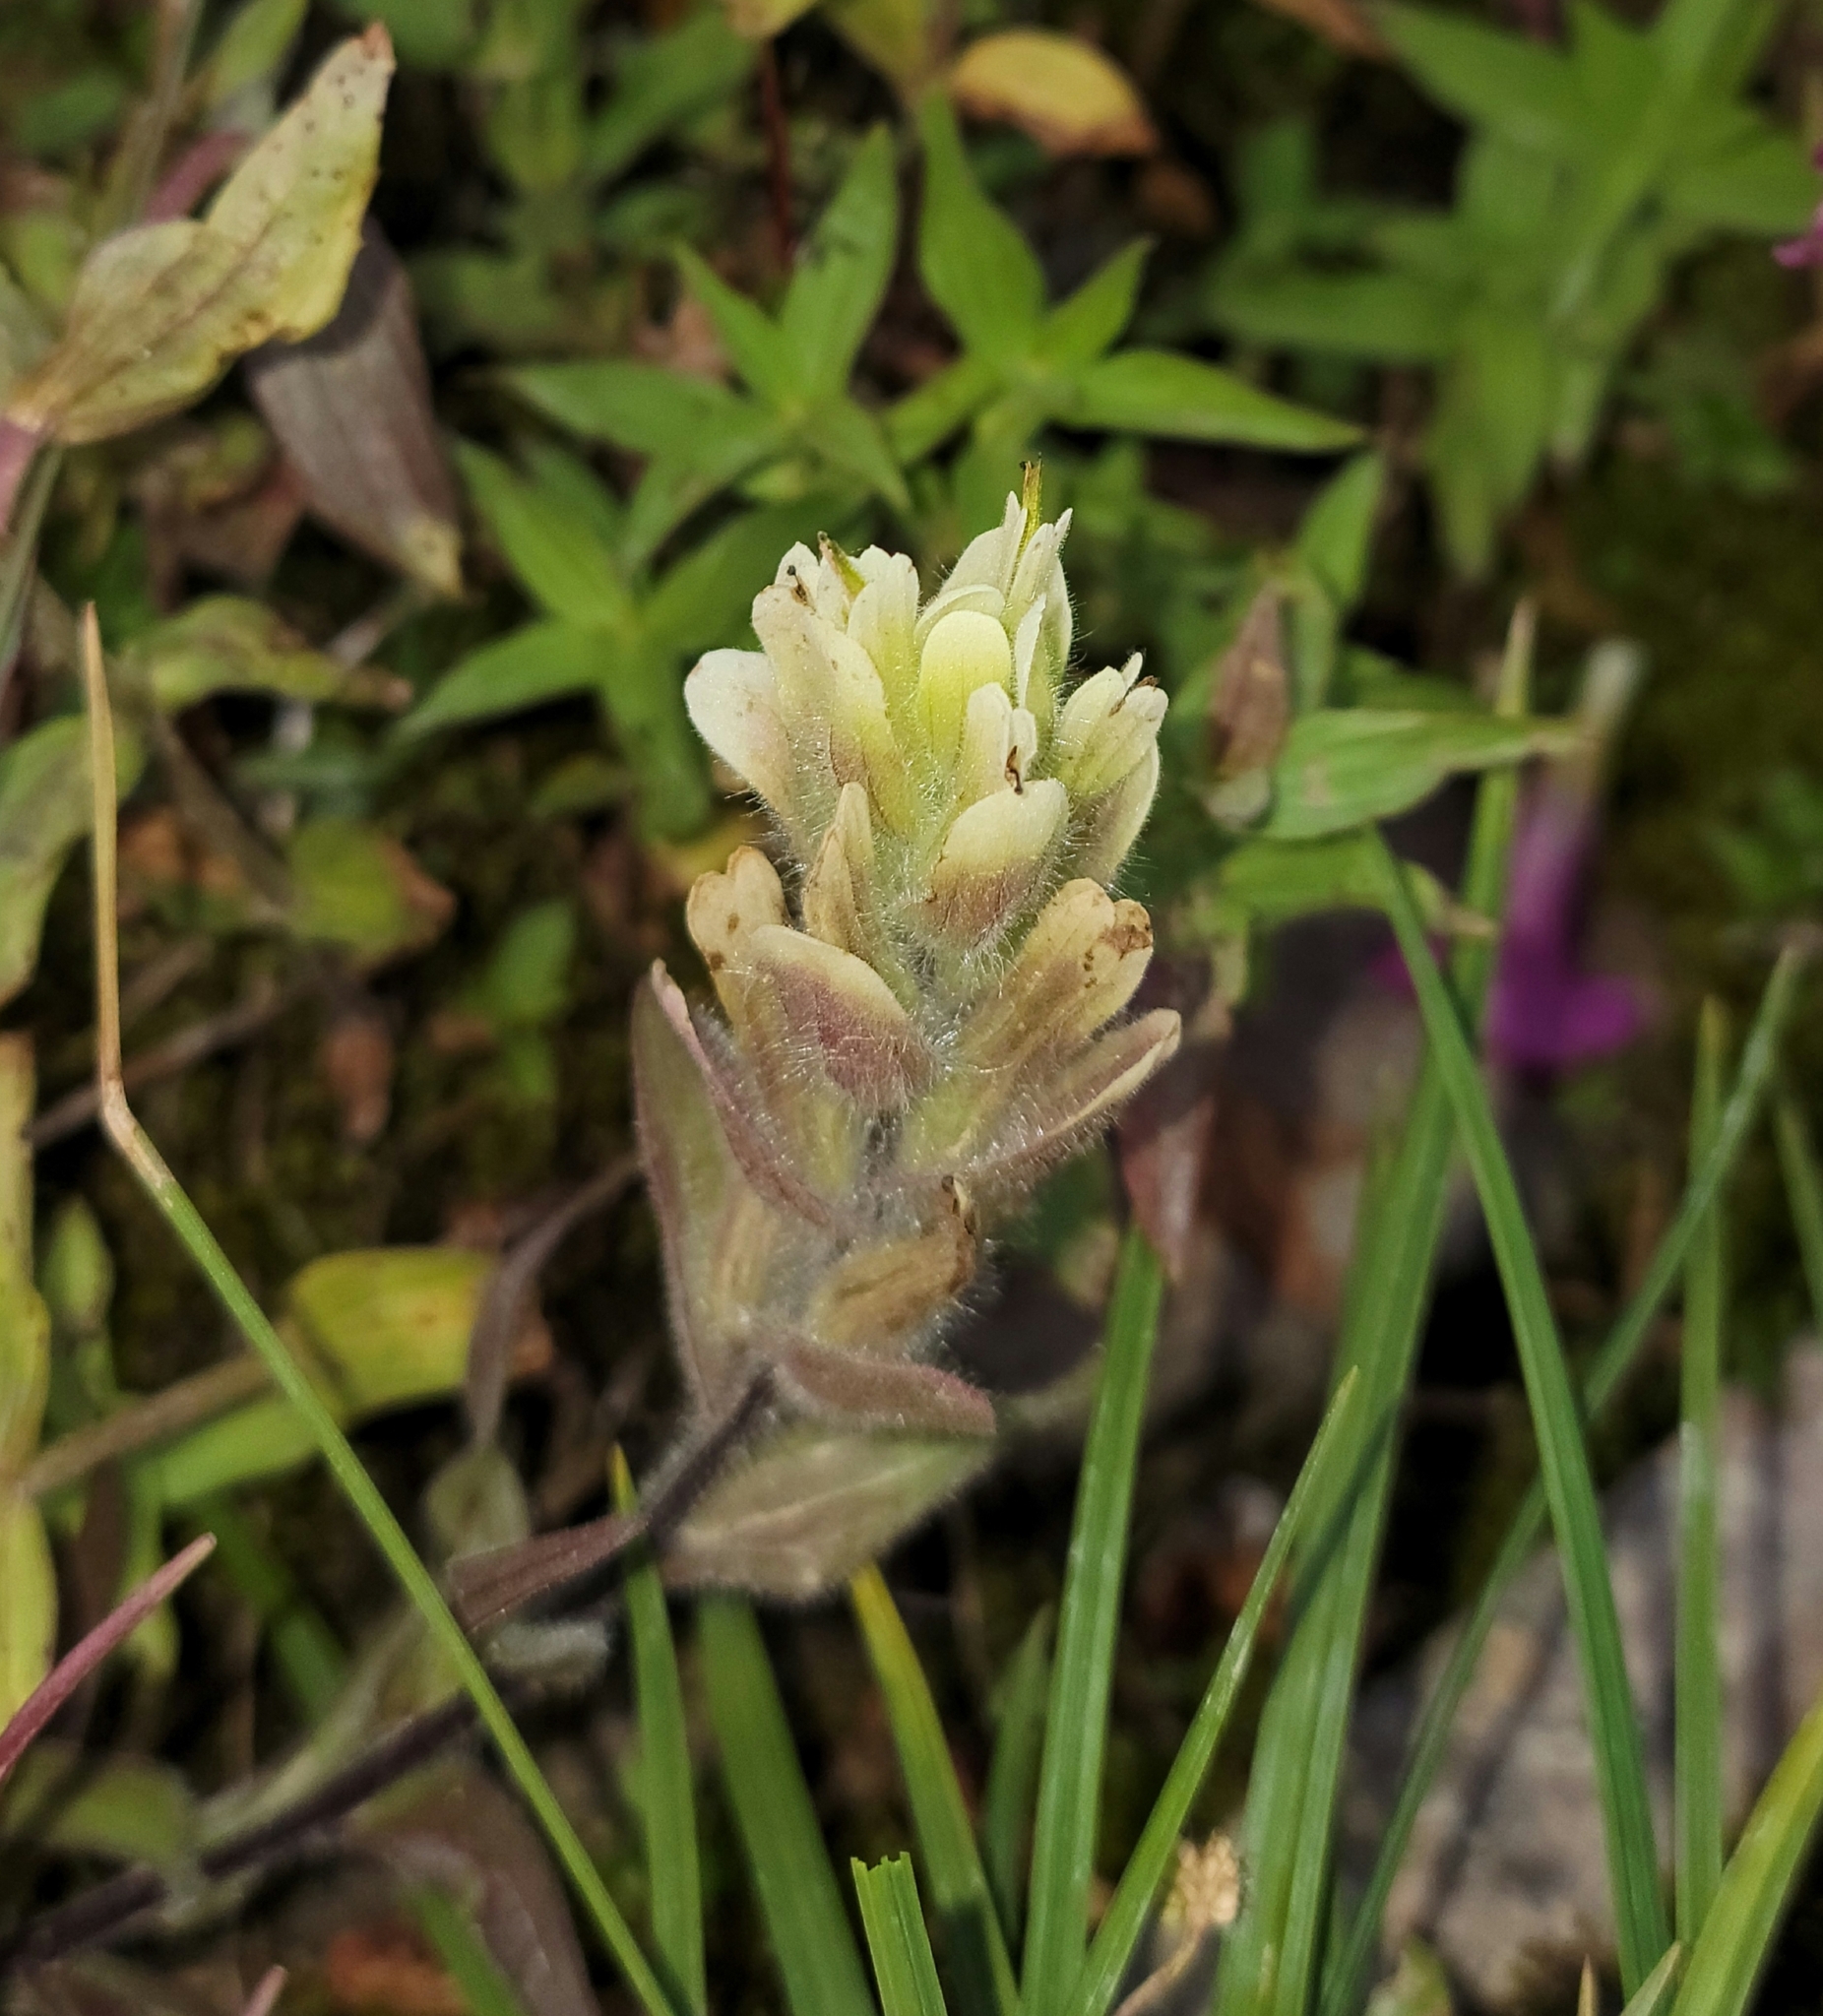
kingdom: Plantae
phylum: Tracheophyta
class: Magnoliopsida
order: Lamiales
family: Orobanchaceae
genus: Castilleja
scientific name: Castilleja occidentalis
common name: Western paintbrush
